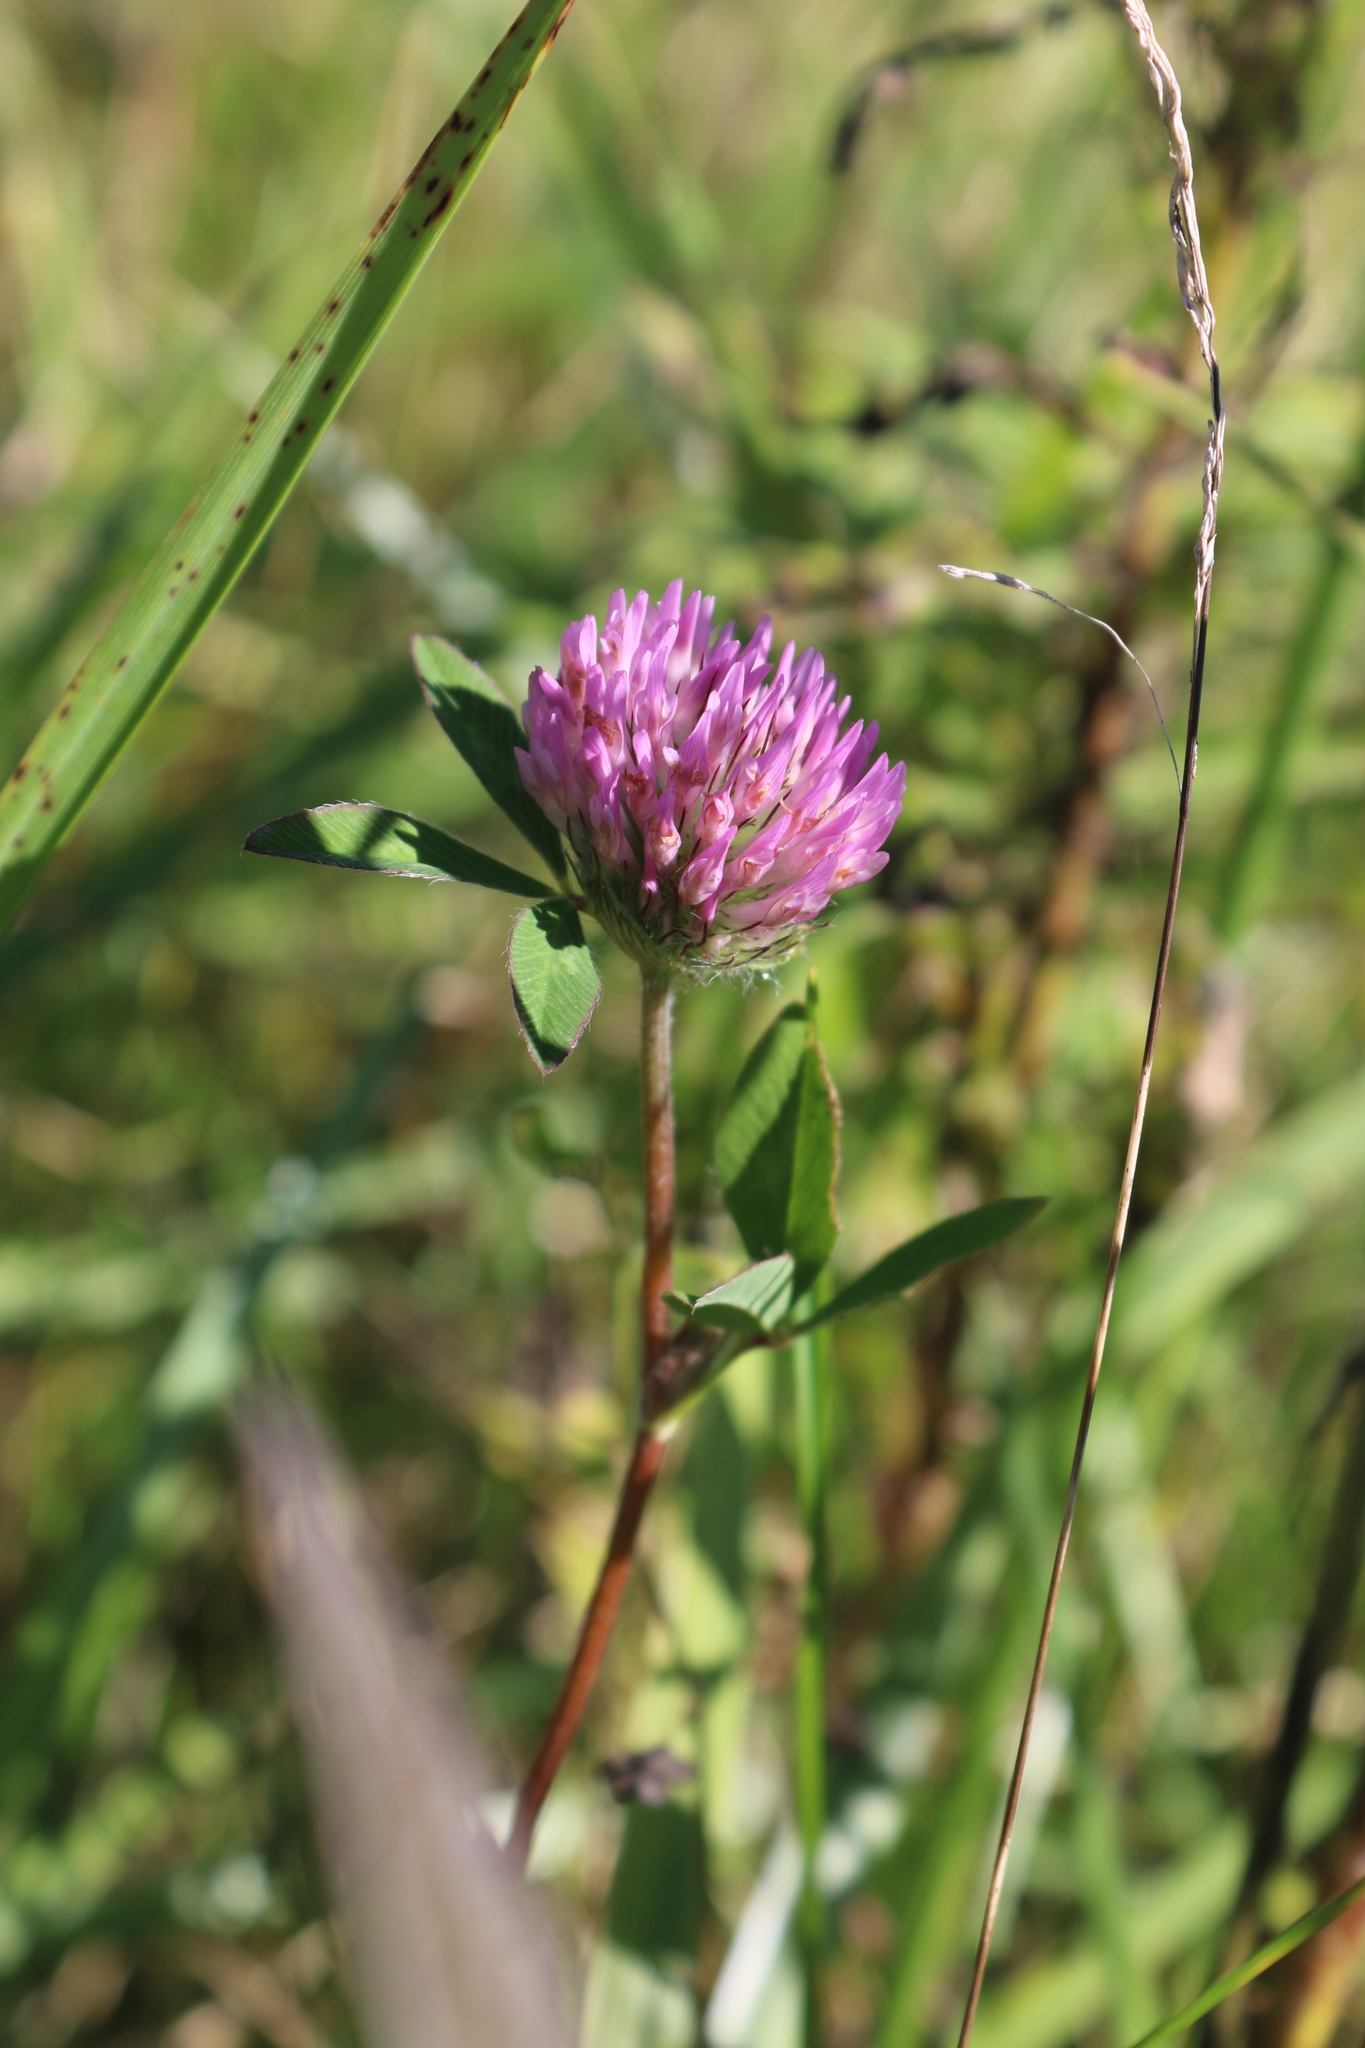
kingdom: Plantae
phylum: Tracheophyta
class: Magnoliopsida
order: Fabales
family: Fabaceae
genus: Trifolium
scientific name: Trifolium pratense
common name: Red clover
